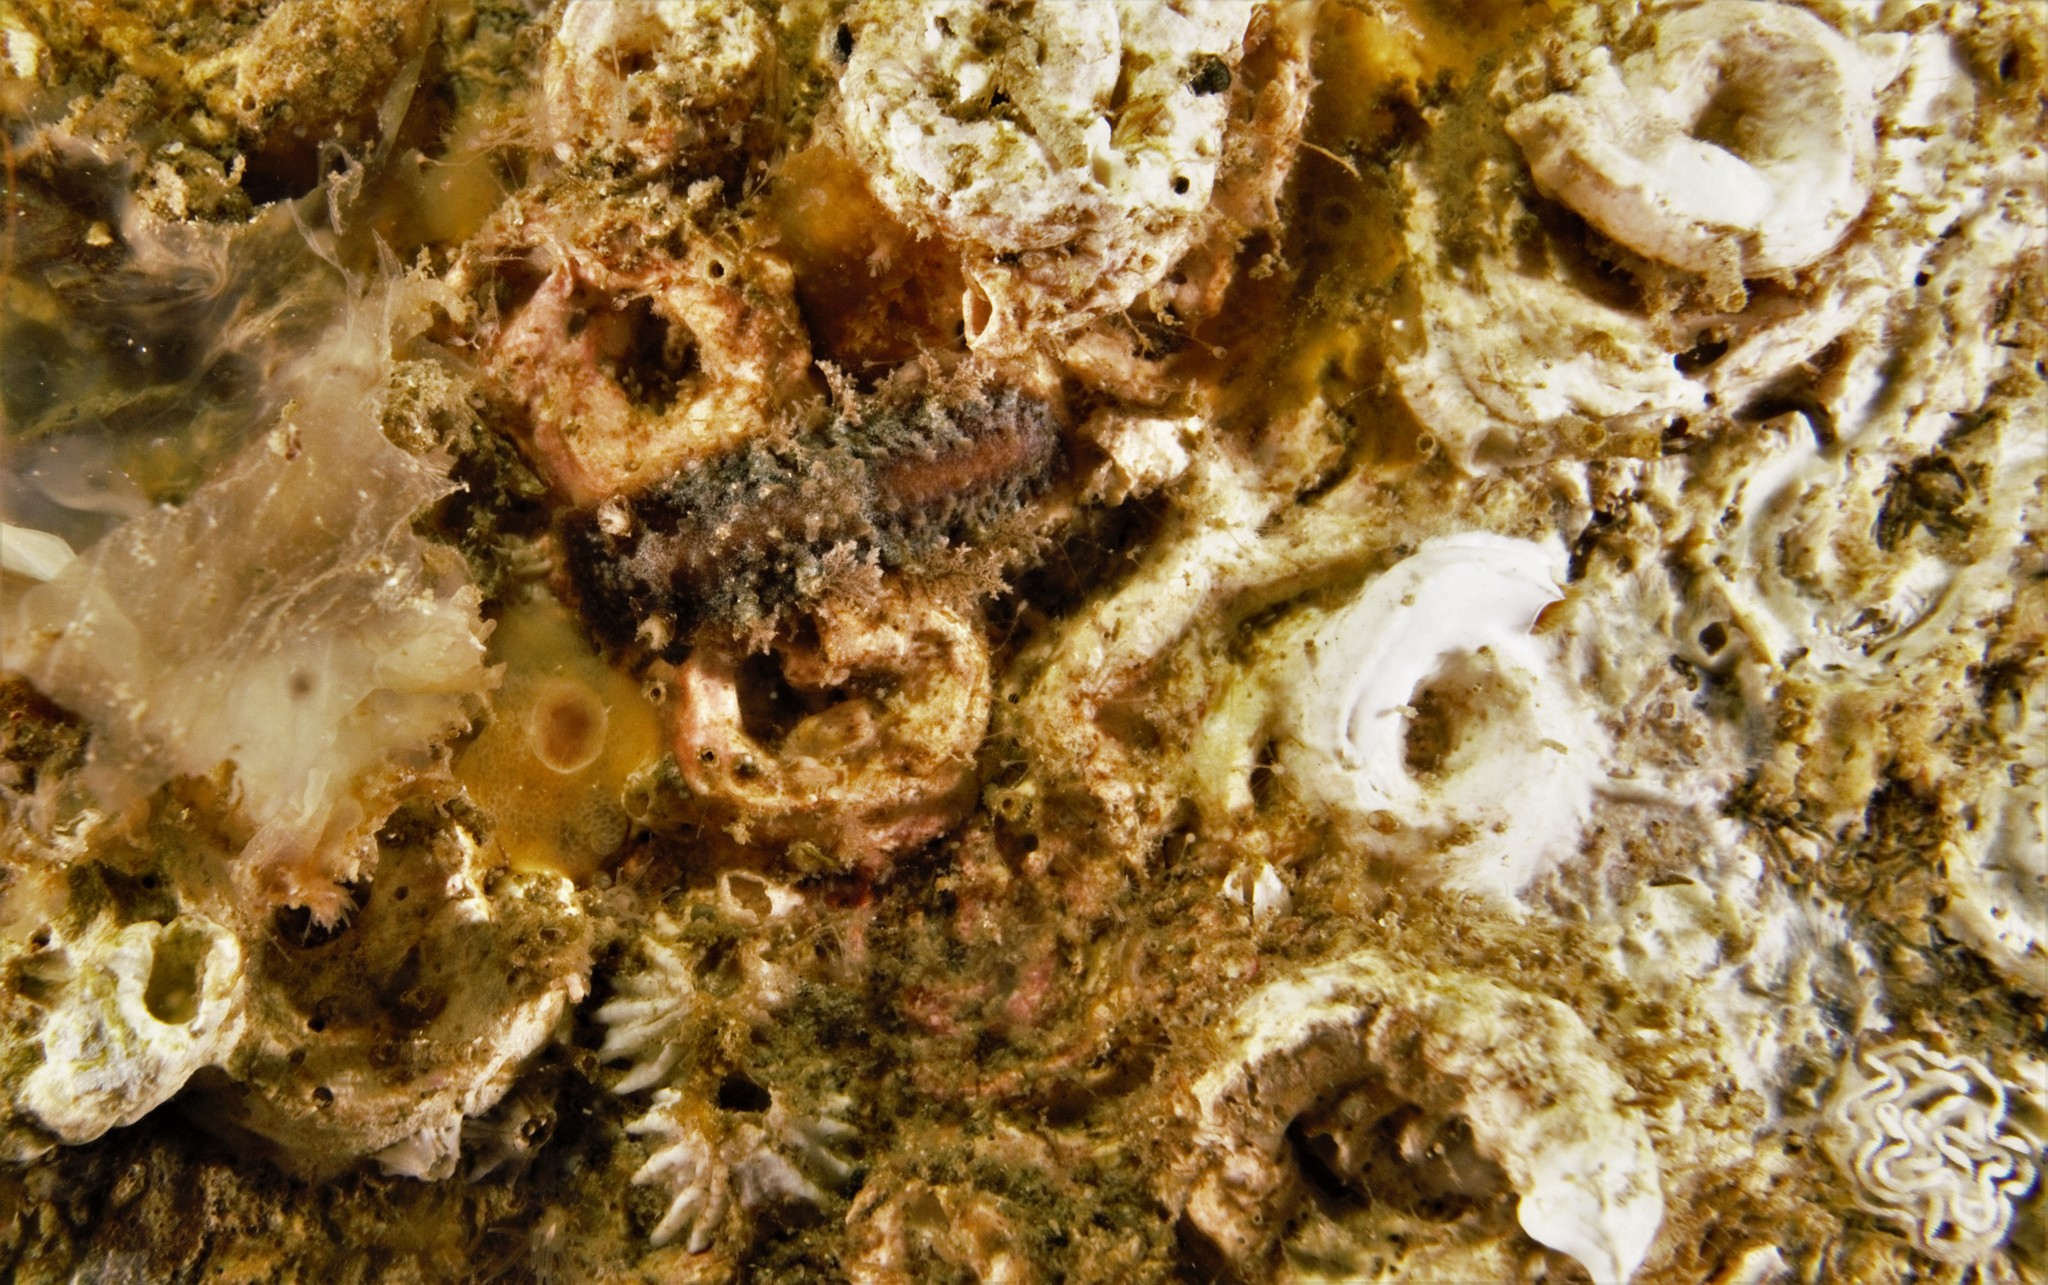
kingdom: Animalia
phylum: Mollusca
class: Gastropoda
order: Nudibranchia
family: Tritoniidae
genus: Duvaucelia
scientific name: Duvaucelia plebeia
